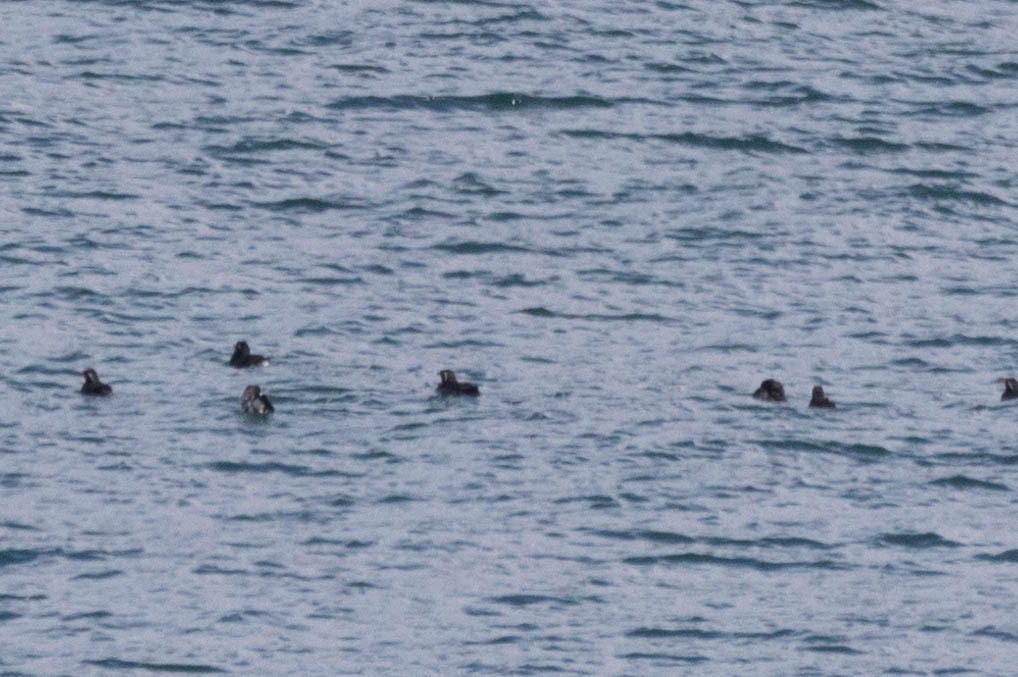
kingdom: Animalia
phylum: Chordata
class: Aves
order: Charadriiformes
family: Alcidae
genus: Cerorhinca
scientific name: Cerorhinca monocerata
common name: Rhinoceros auklet
